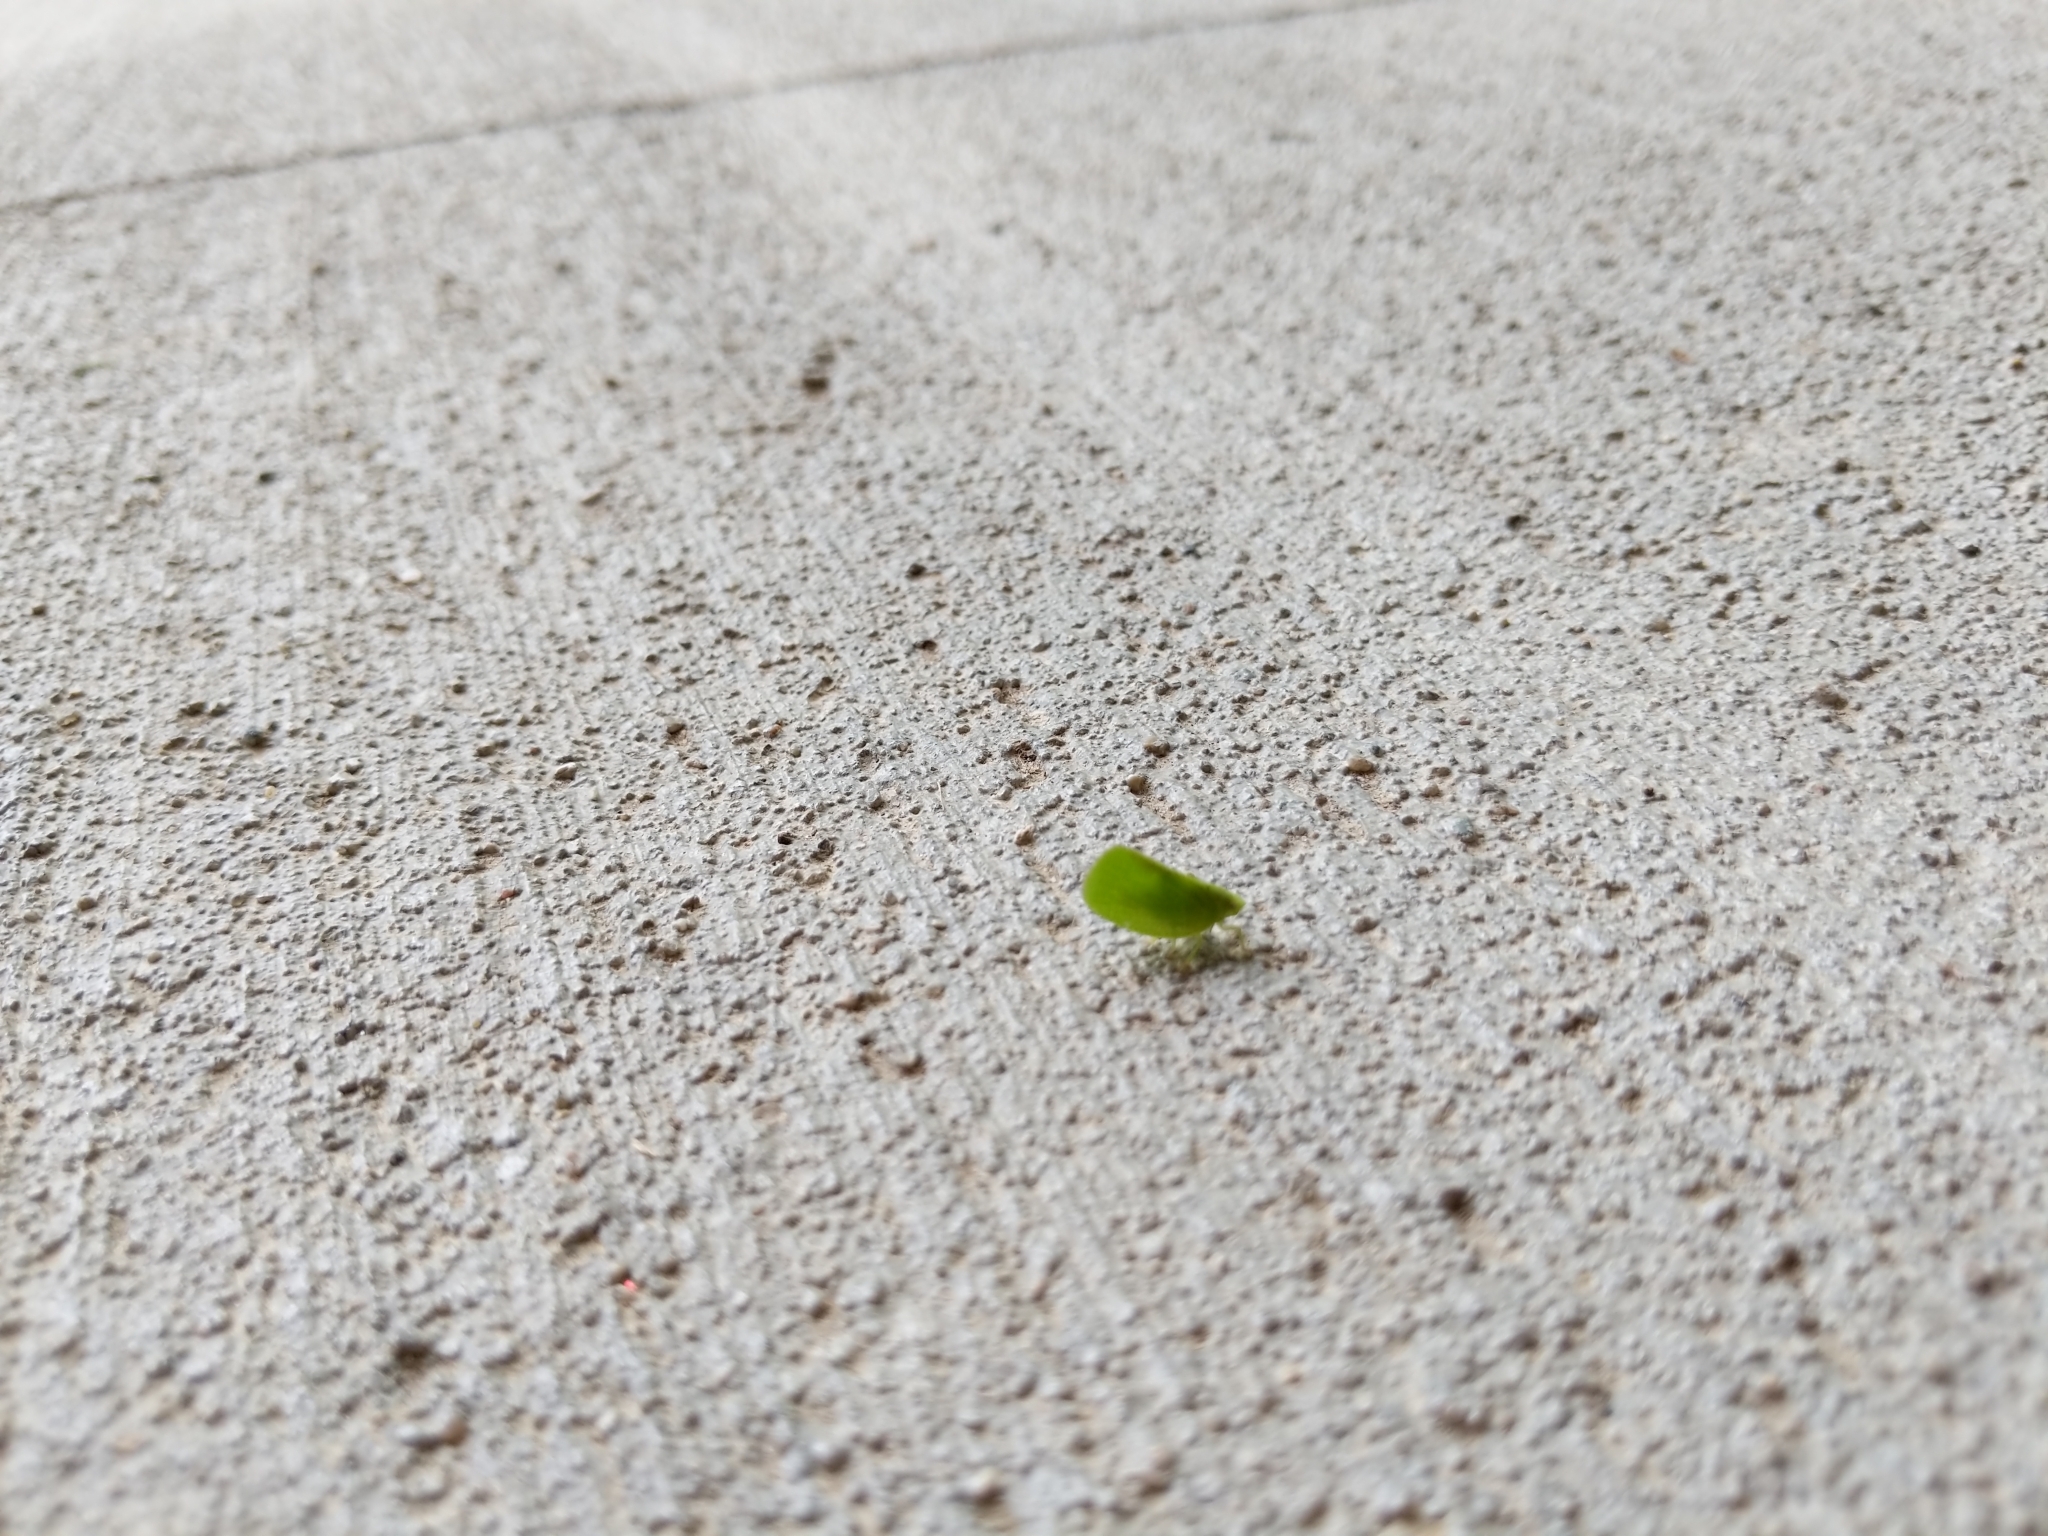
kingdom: Animalia
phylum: Arthropoda
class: Insecta
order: Hemiptera
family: Acanaloniidae
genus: Acanalonia
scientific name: Acanalonia conica
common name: Green cone-headed planthopper
